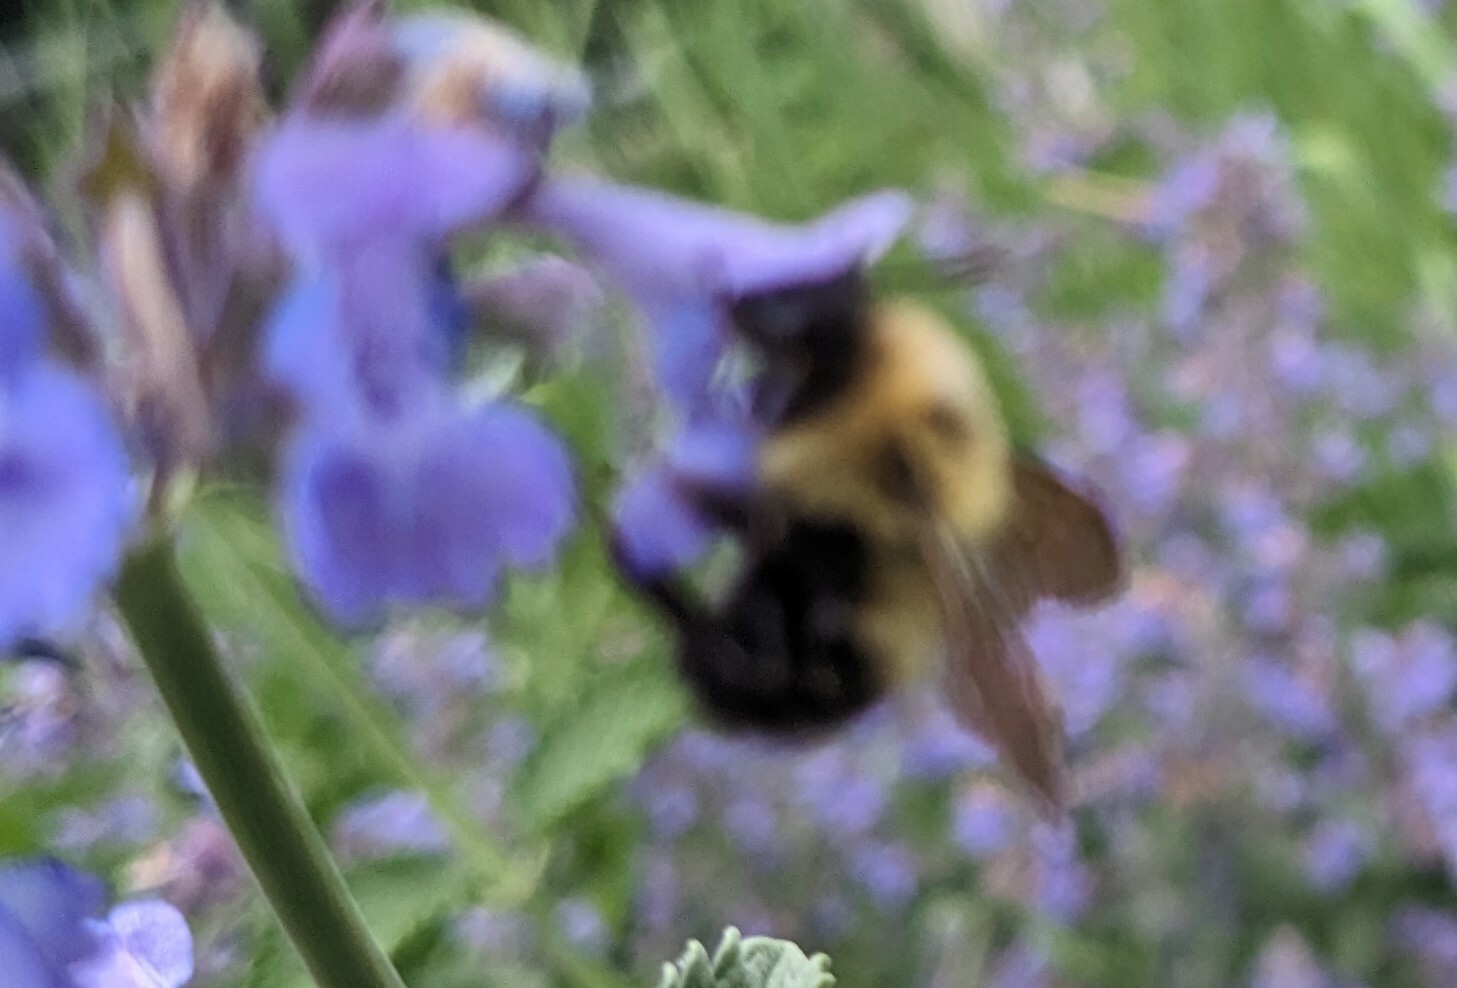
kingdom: Animalia
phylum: Arthropoda
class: Insecta
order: Hymenoptera
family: Apidae
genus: Bombus
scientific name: Bombus bimaculatus
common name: Two-spotted bumble bee
